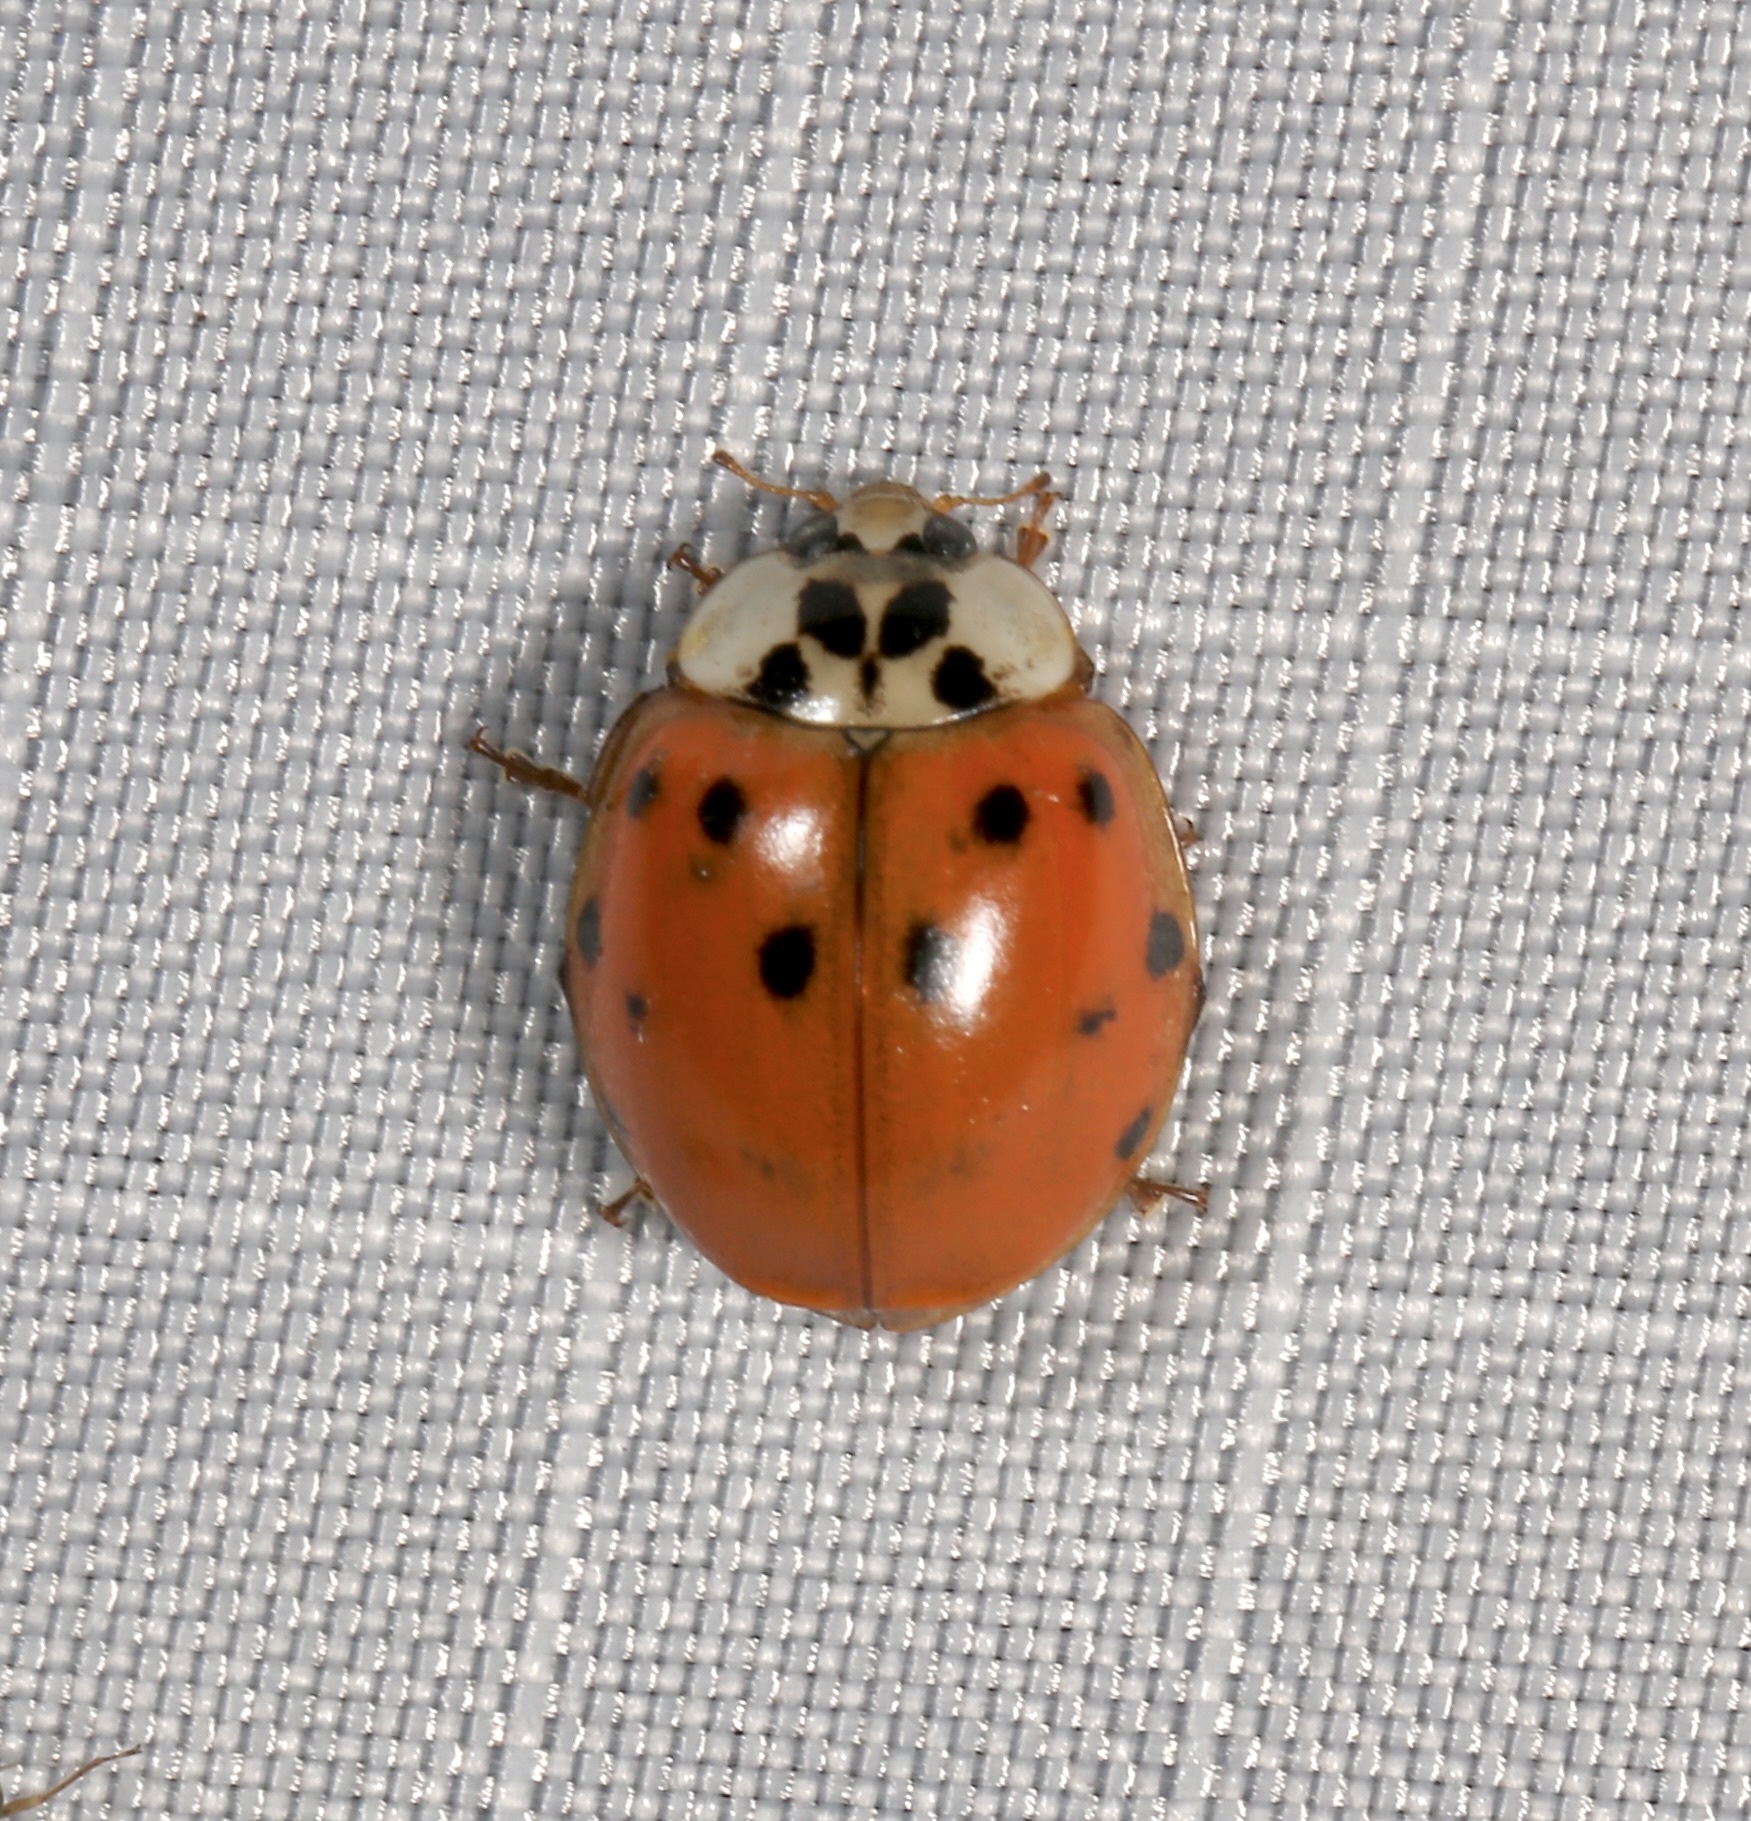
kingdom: Animalia
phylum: Arthropoda
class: Insecta
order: Coleoptera
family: Coccinellidae
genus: Harmonia
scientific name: Harmonia axyridis
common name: Harlequin ladybird
